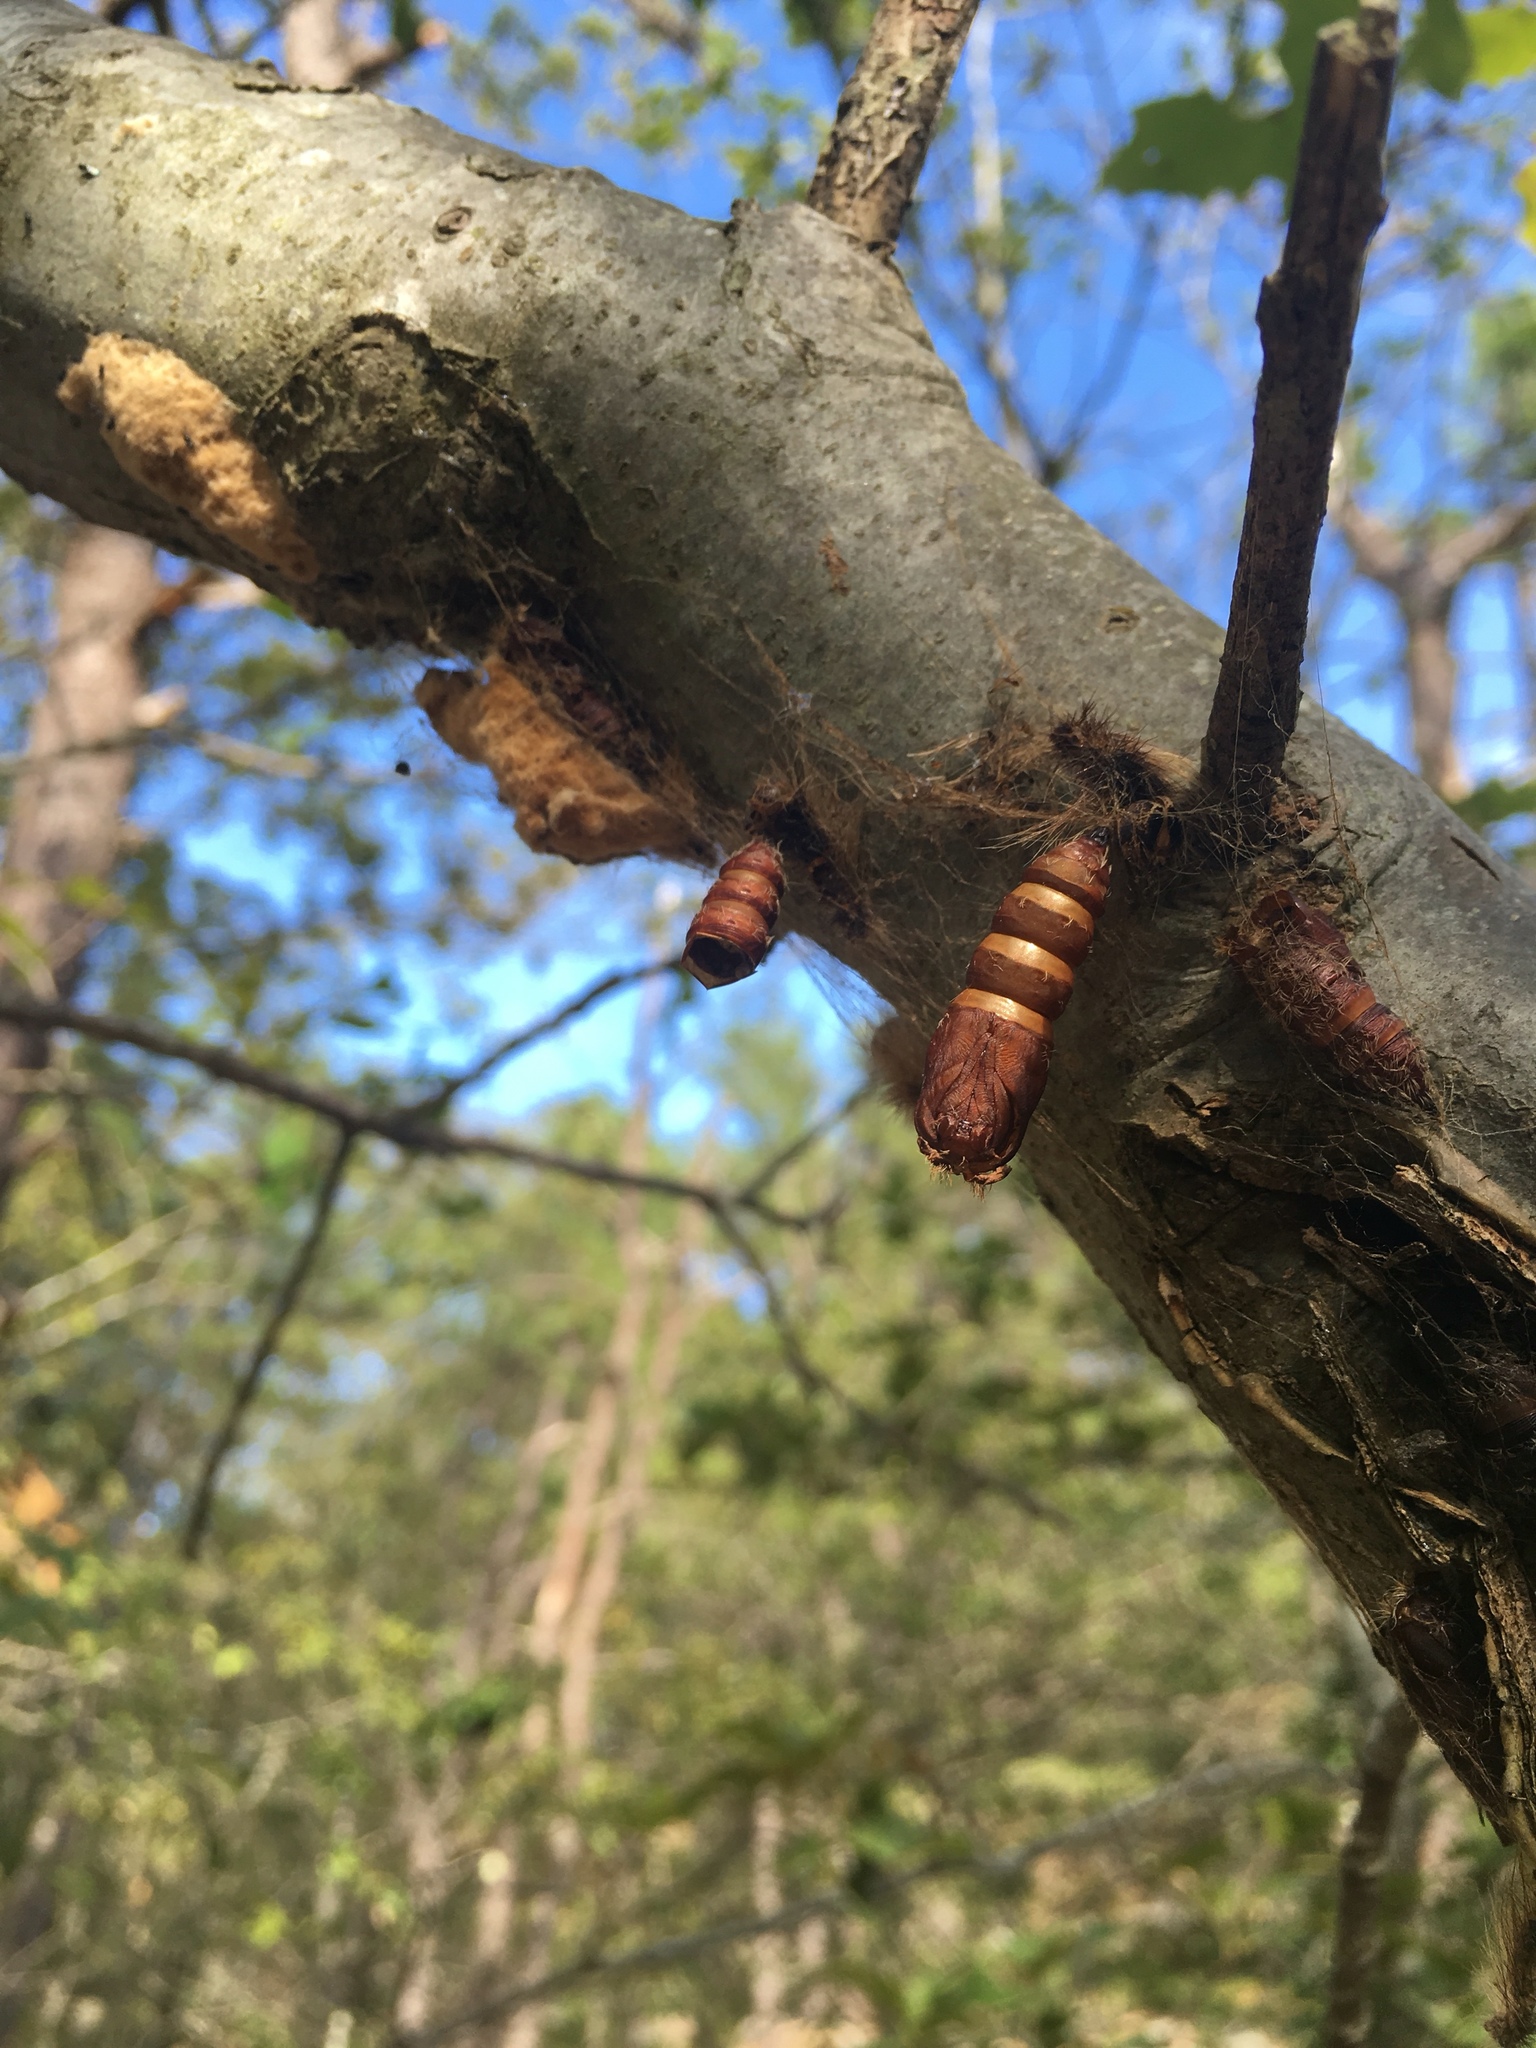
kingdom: Animalia
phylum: Arthropoda
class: Insecta
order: Lepidoptera
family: Erebidae
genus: Lymantria
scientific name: Lymantria dispar
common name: Gypsy moth
